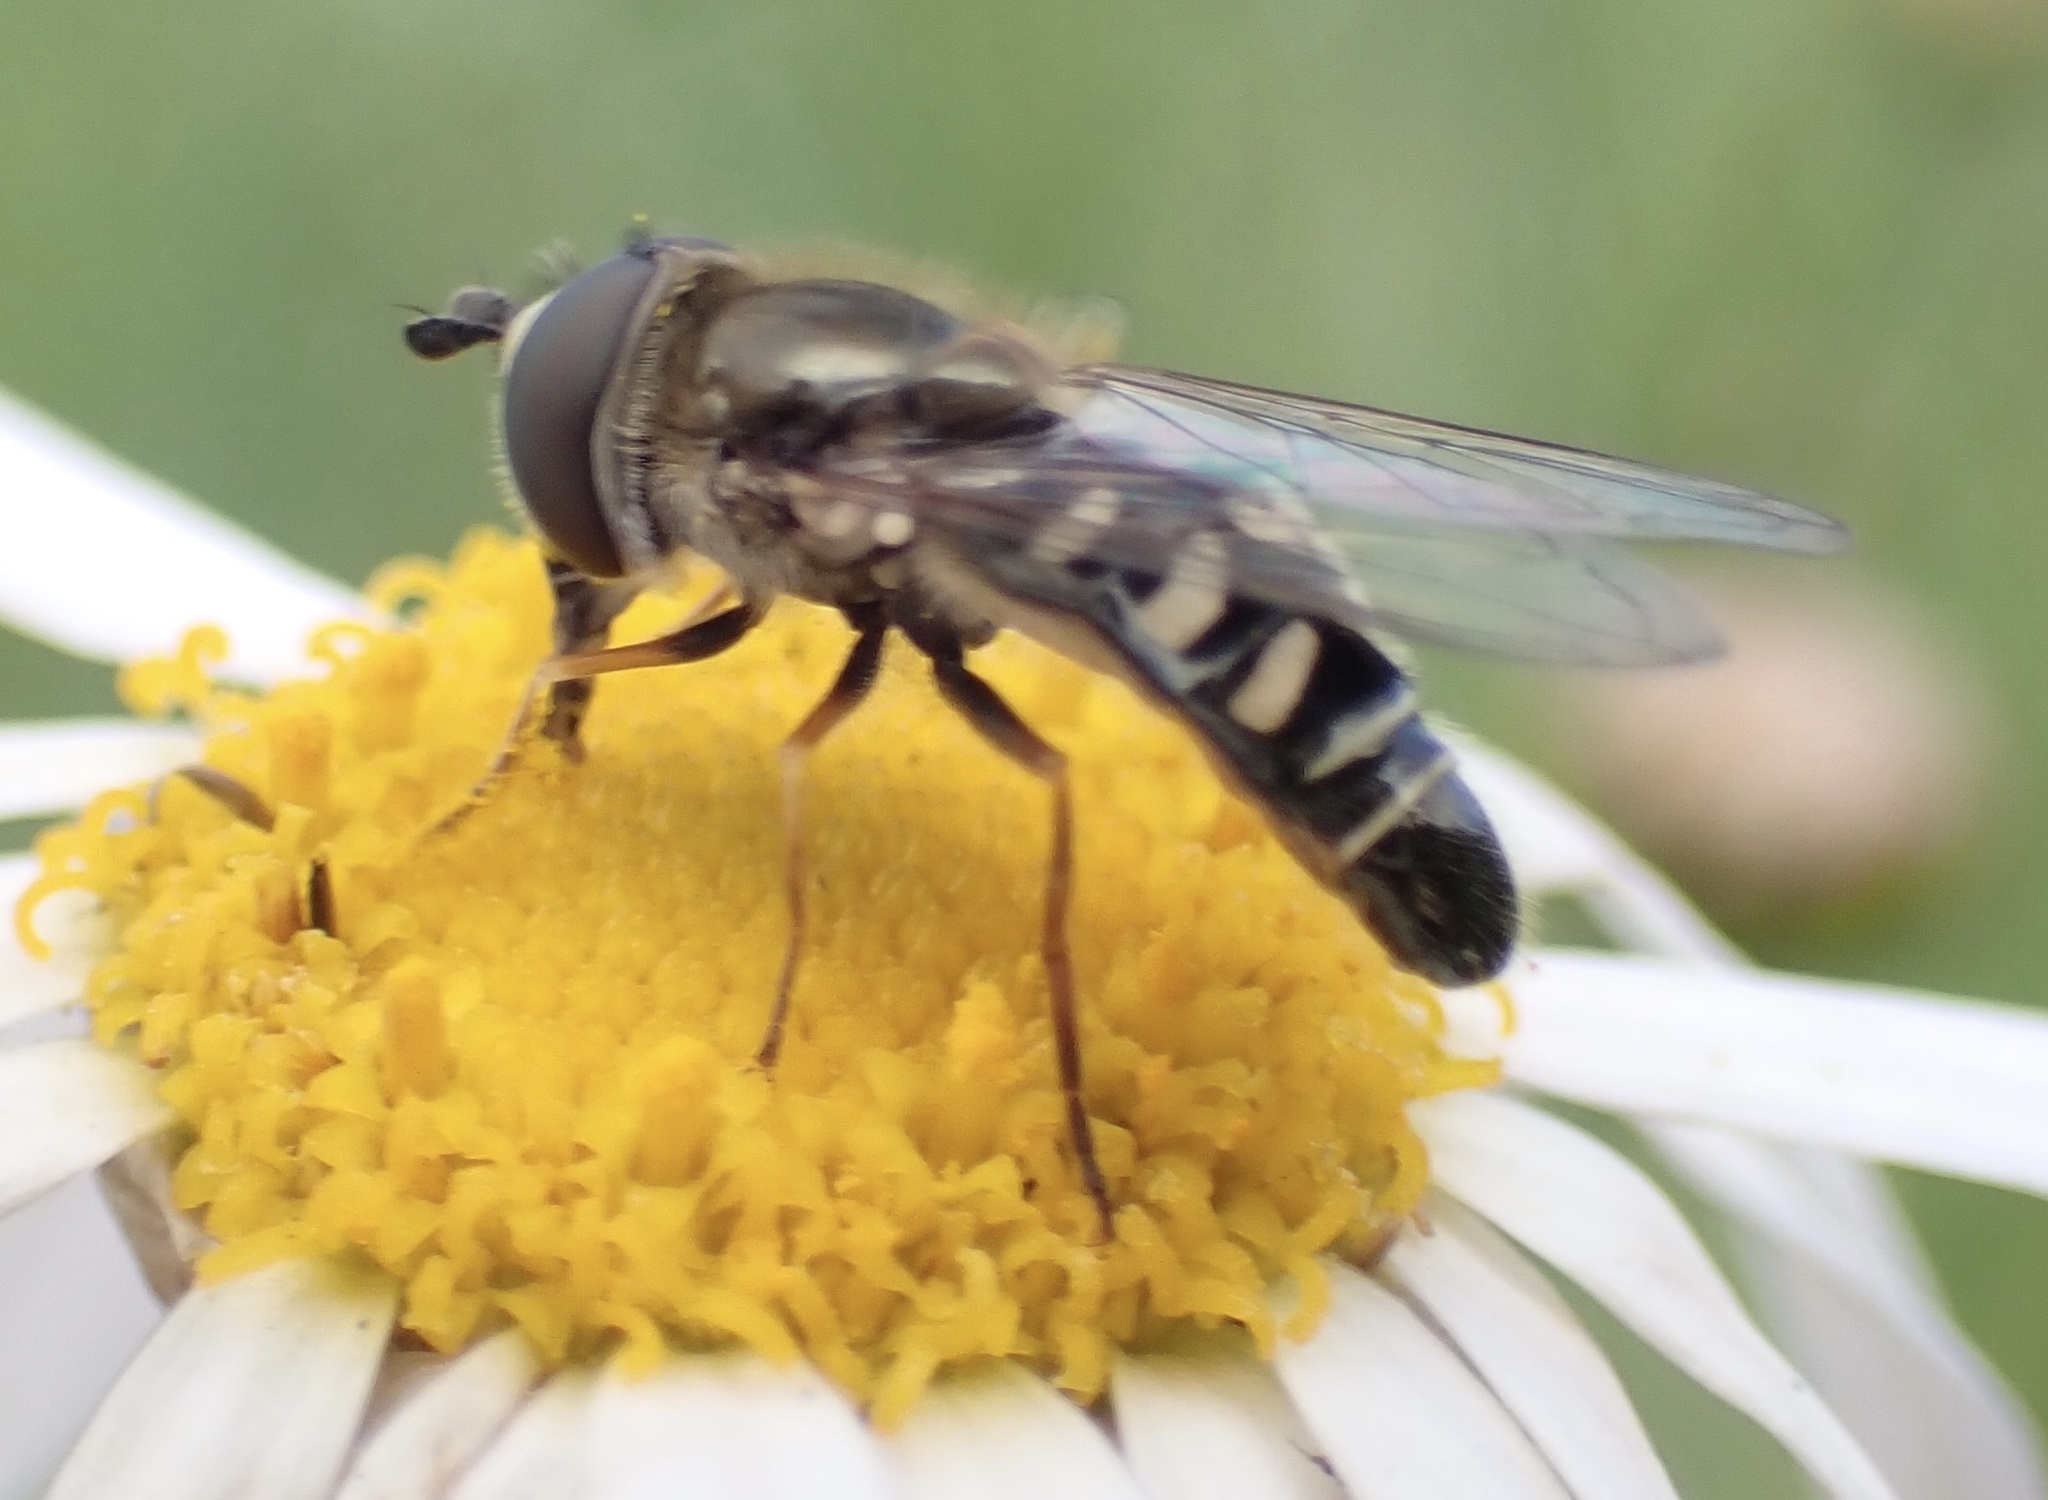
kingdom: Animalia
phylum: Arthropoda
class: Insecta
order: Diptera
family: Syrphidae
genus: Eupeodes
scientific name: Eupeodes volucris
